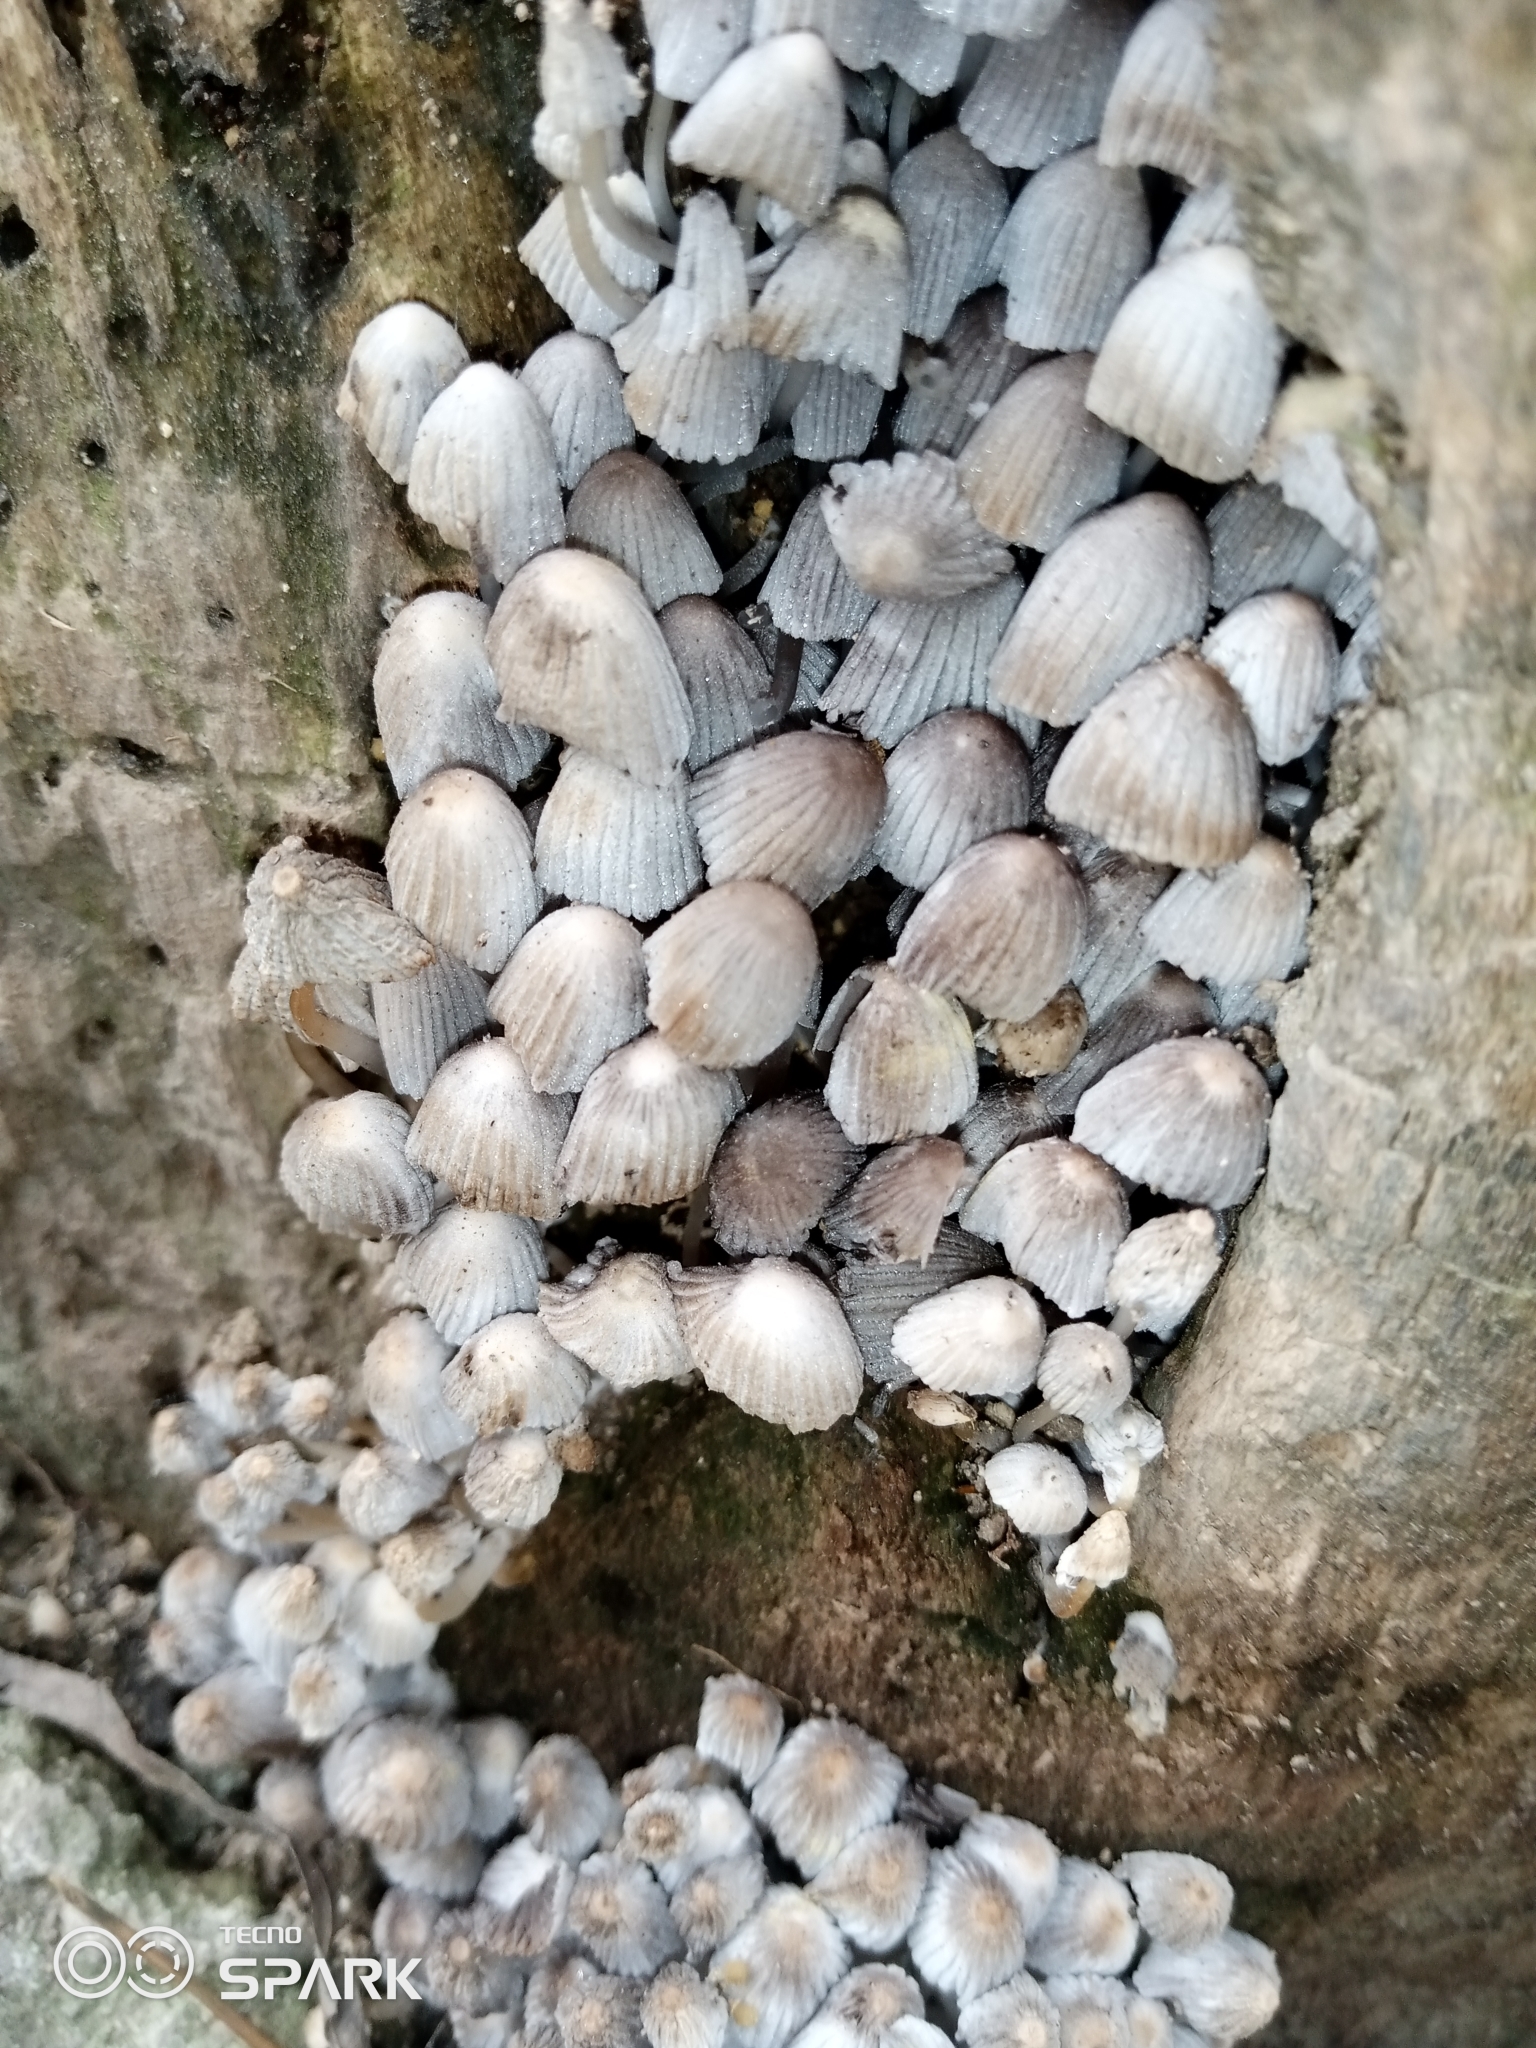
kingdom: Fungi
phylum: Basidiomycota
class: Agaricomycetes
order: Agaricales
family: Psathyrellaceae
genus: Coprinellus
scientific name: Coprinellus disseminatus
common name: Fairies' bonnets
